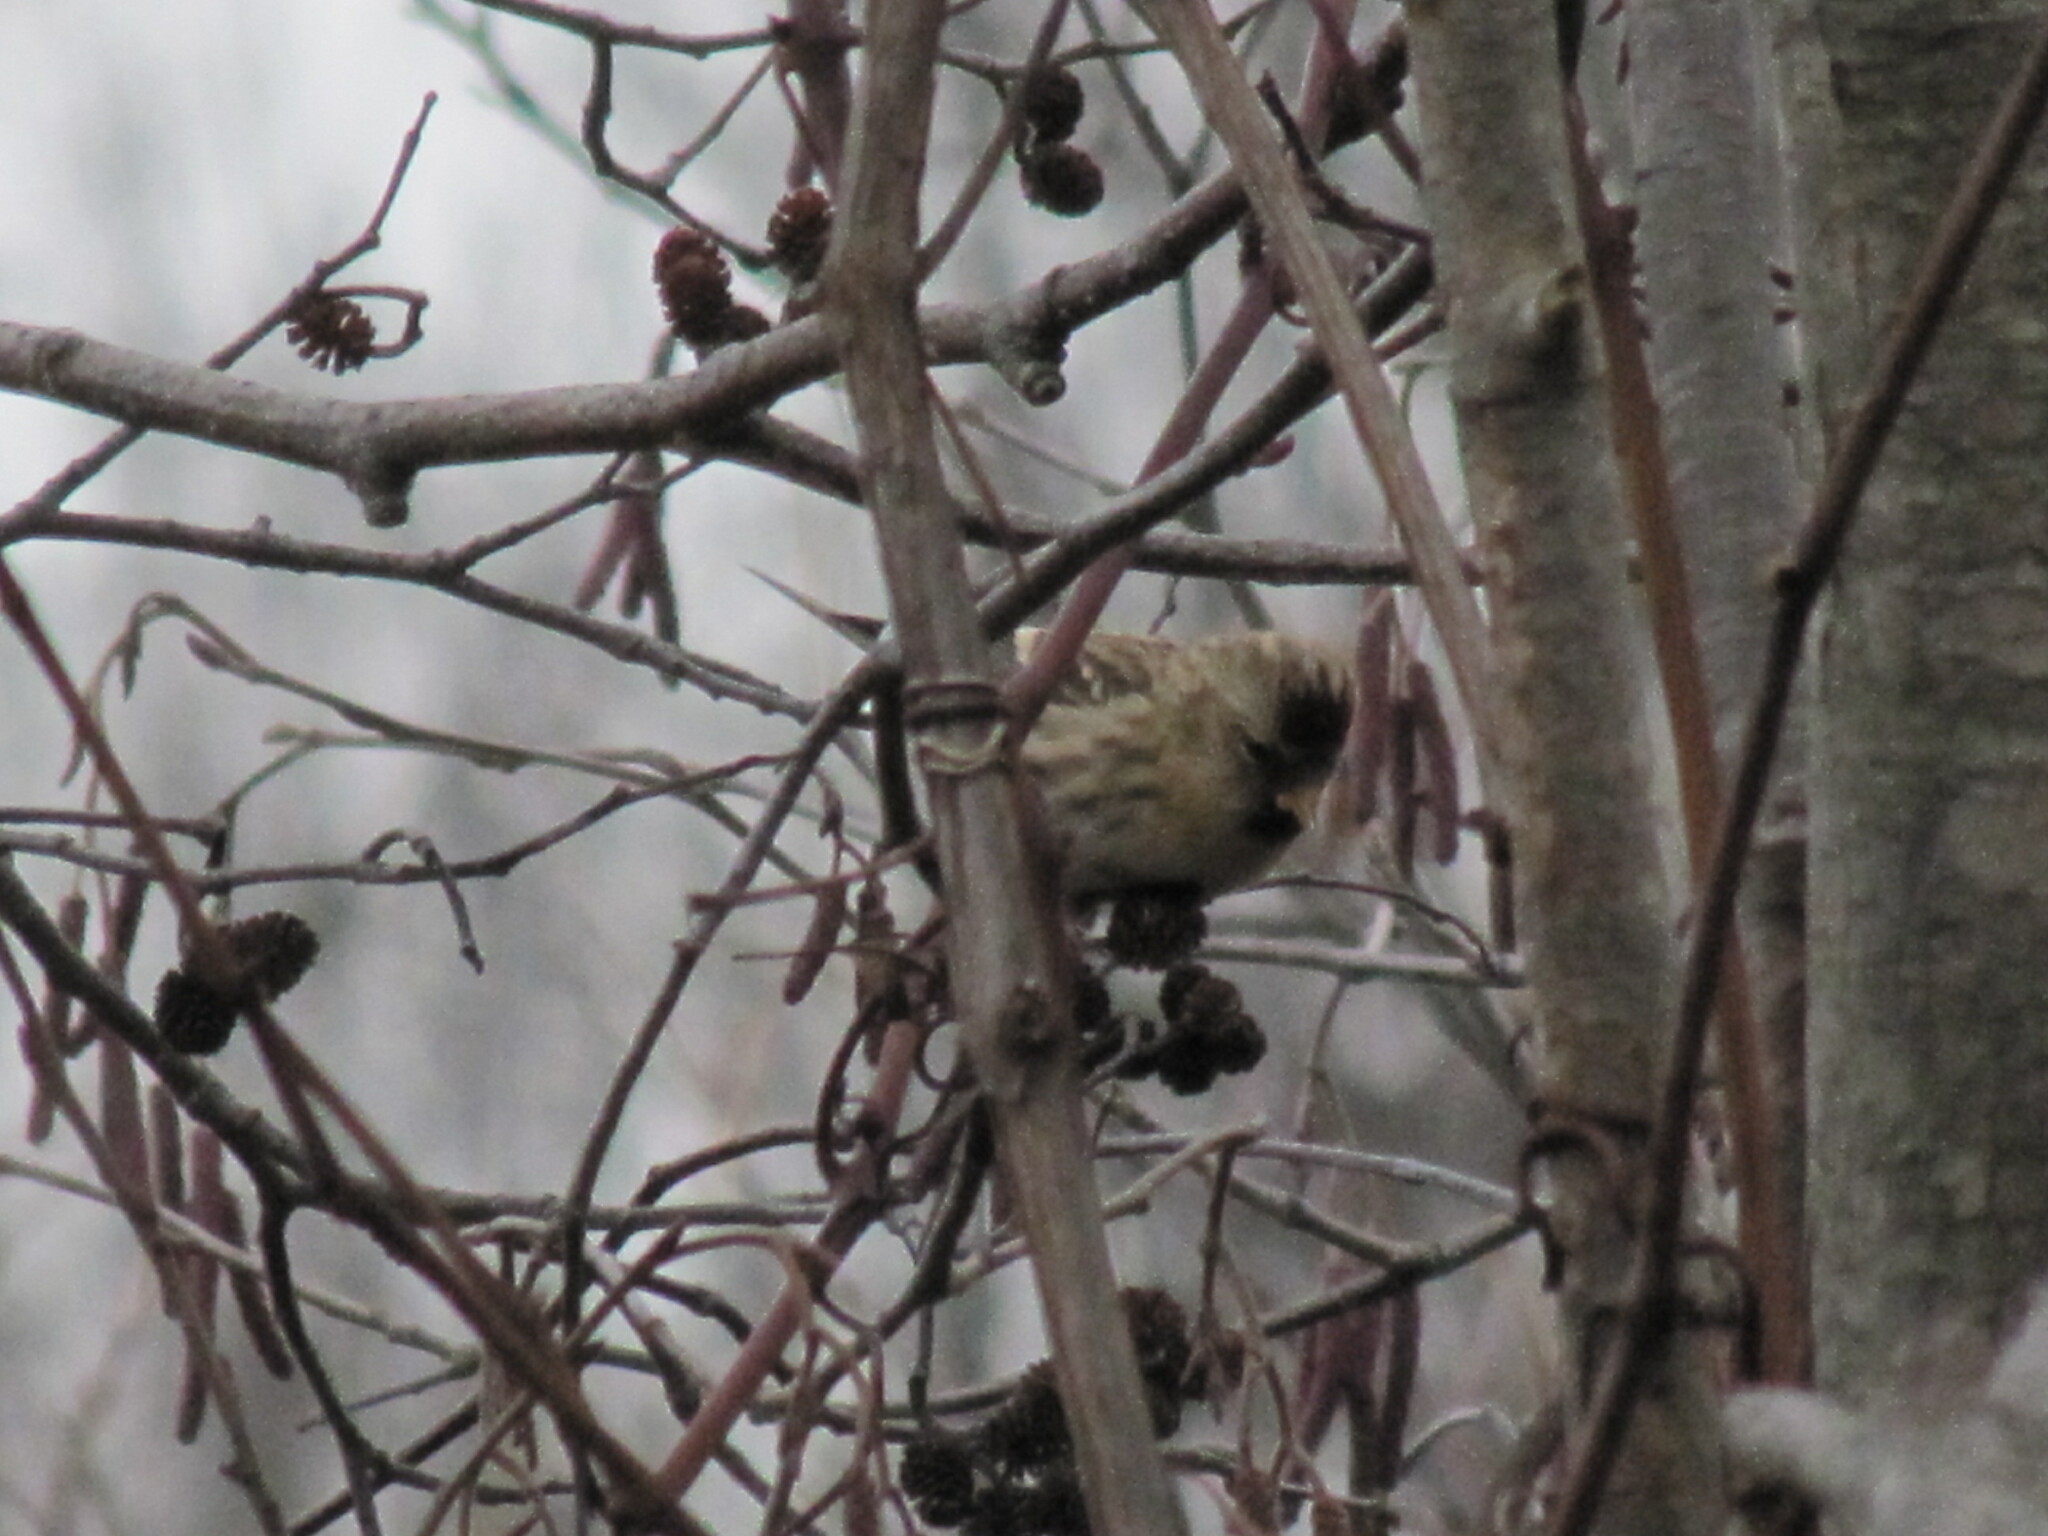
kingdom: Animalia
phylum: Chordata
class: Aves
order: Passeriformes
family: Fringillidae
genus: Acanthis
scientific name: Acanthis flammea
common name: Common redpoll
